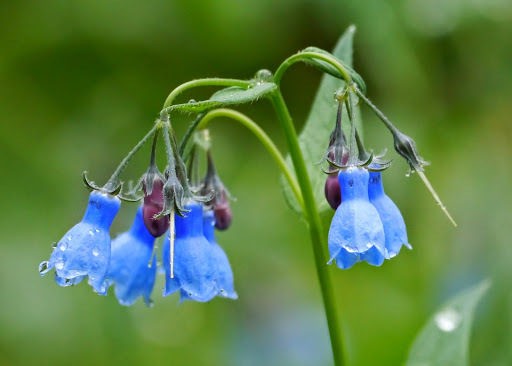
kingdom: Plantae
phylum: Tracheophyta
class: Magnoliopsida
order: Boraginales
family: Boraginaceae
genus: Mertensia
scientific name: Mertensia paniculata
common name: Panicled bluebells
